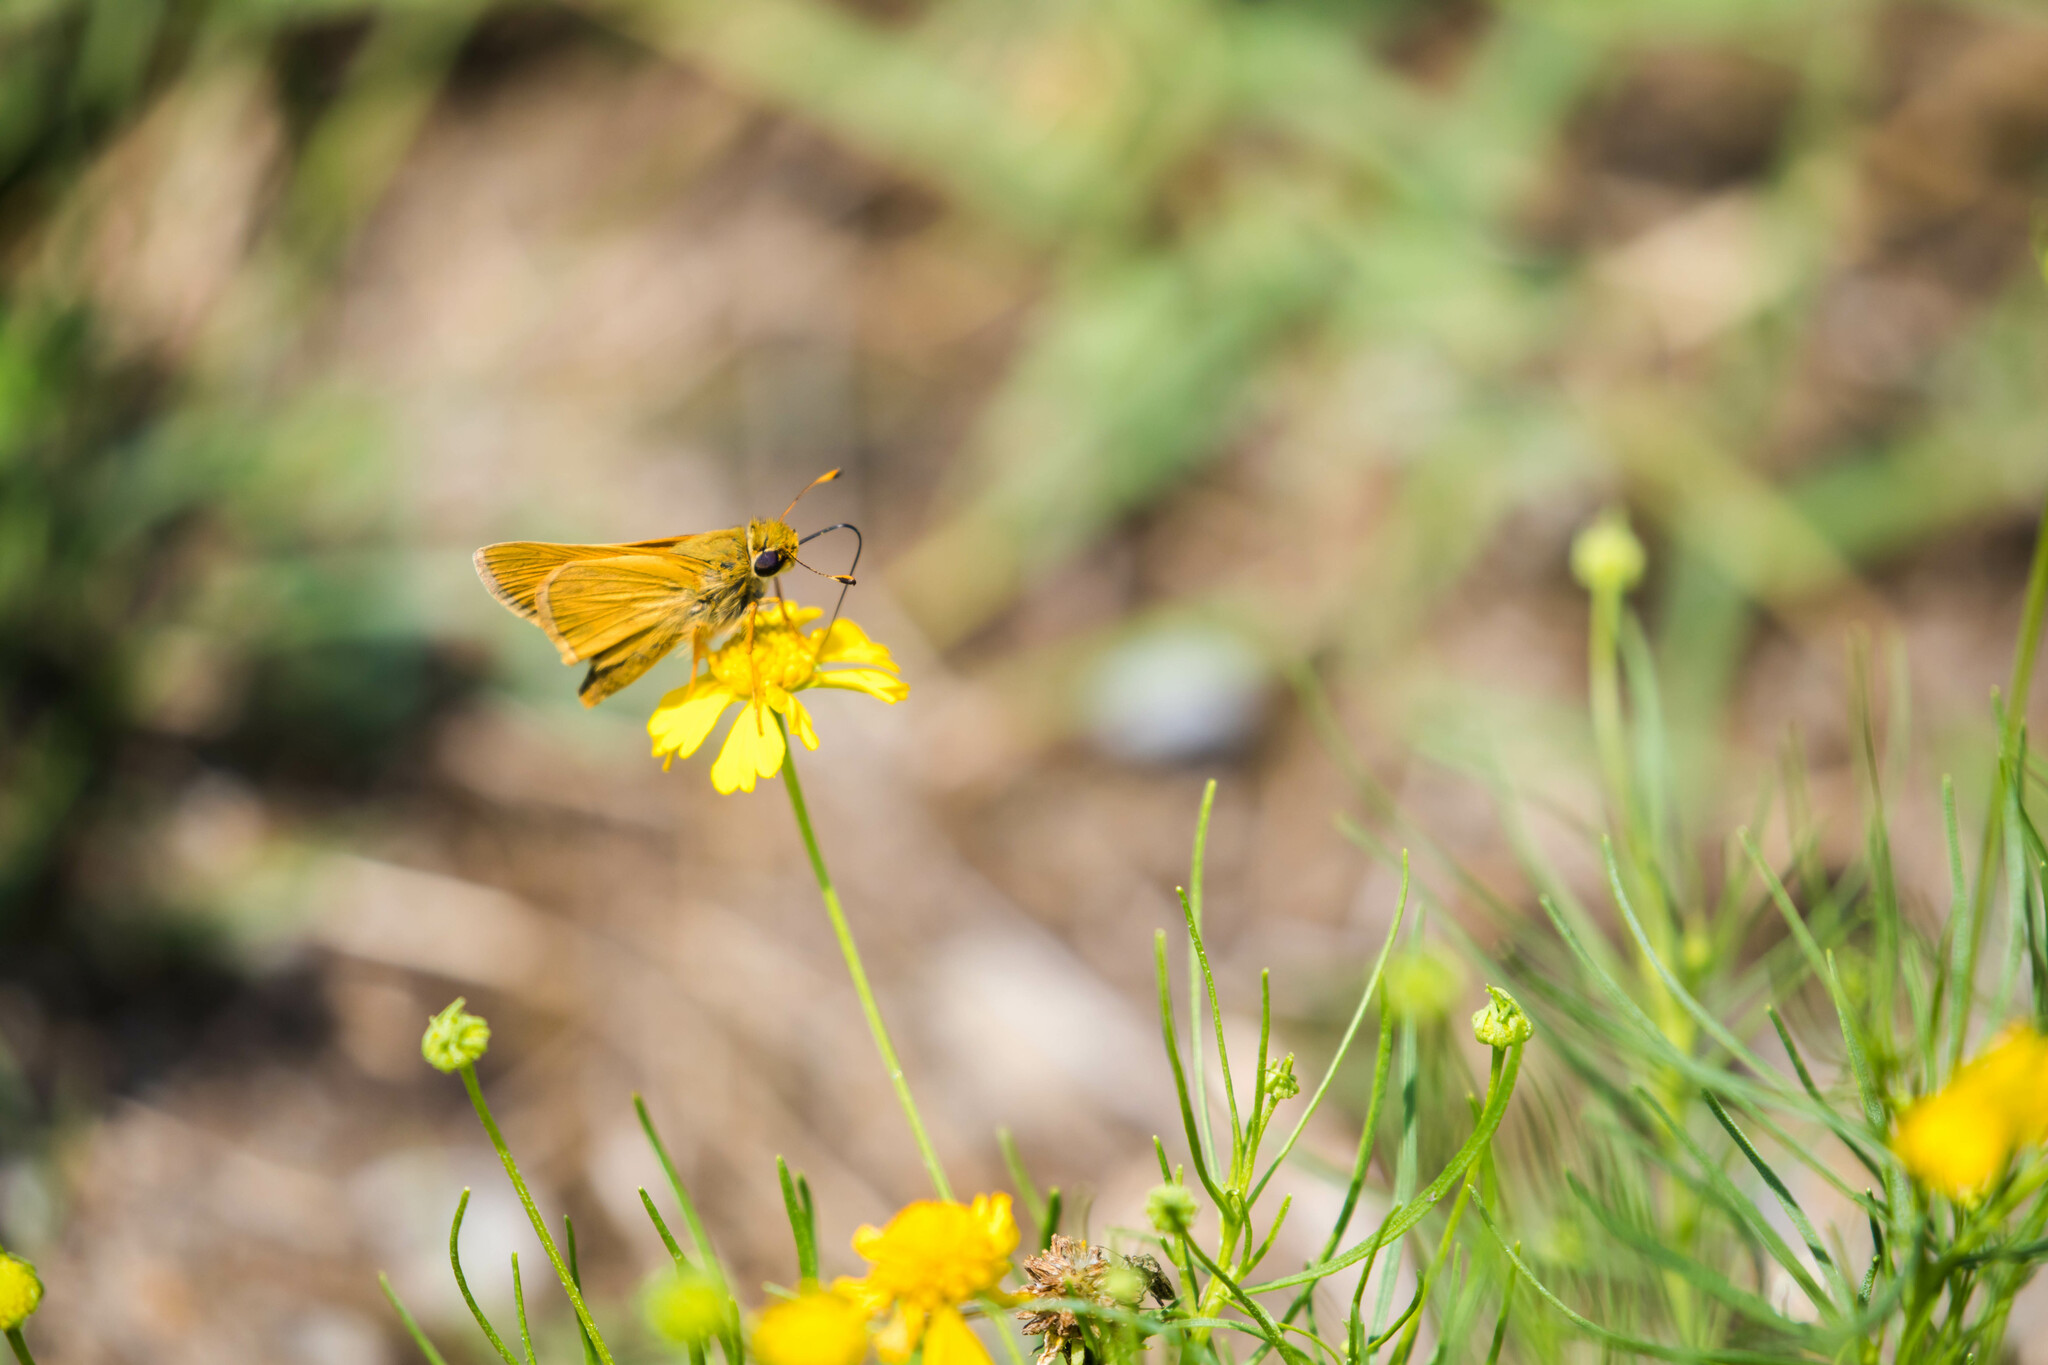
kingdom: Animalia
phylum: Arthropoda
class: Insecta
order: Lepidoptera
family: Hesperiidae
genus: Atalopedes
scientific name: Atalopedes
